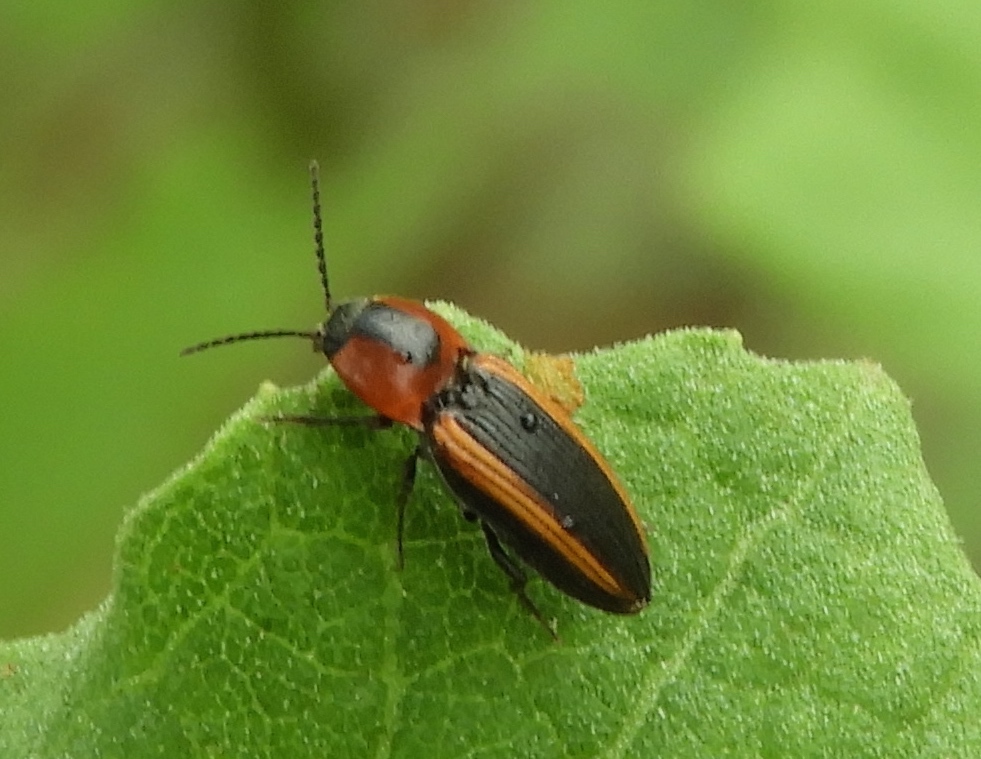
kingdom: Animalia
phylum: Arthropoda
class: Insecta
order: Coleoptera
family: Elateridae
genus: Cardiophorus
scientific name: Cardiophorus aptopoides
